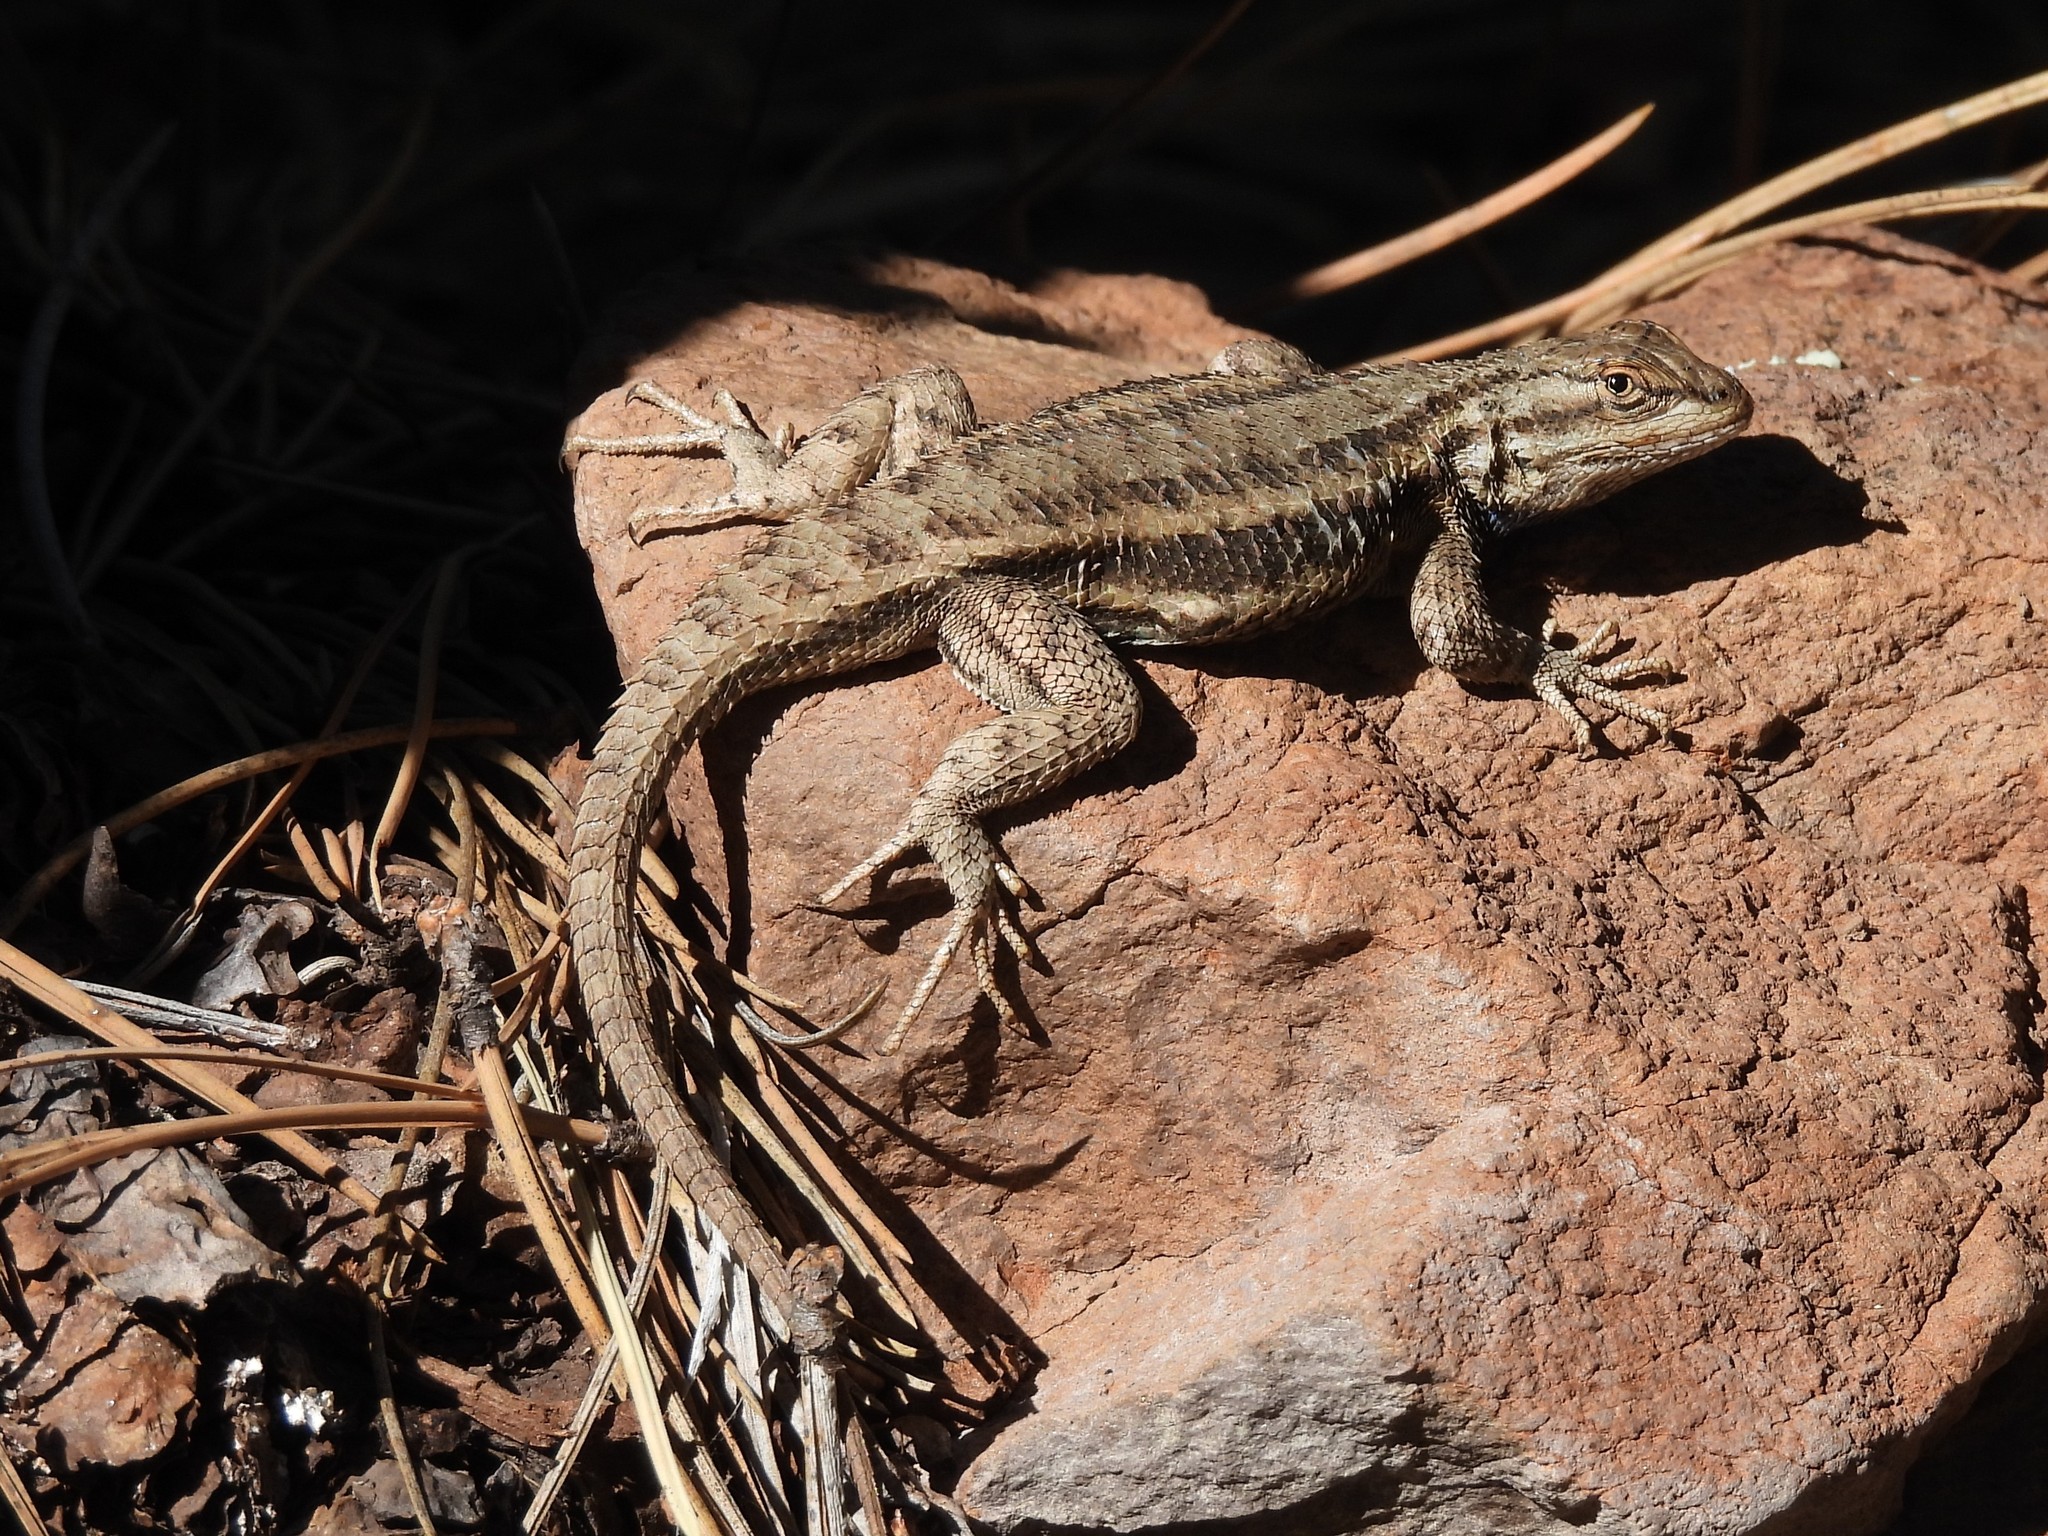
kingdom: Animalia
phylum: Chordata
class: Squamata
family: Phrynosomatidae
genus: Sceloporus
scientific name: Sceloporus tristichus
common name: Plateau fence lizard
